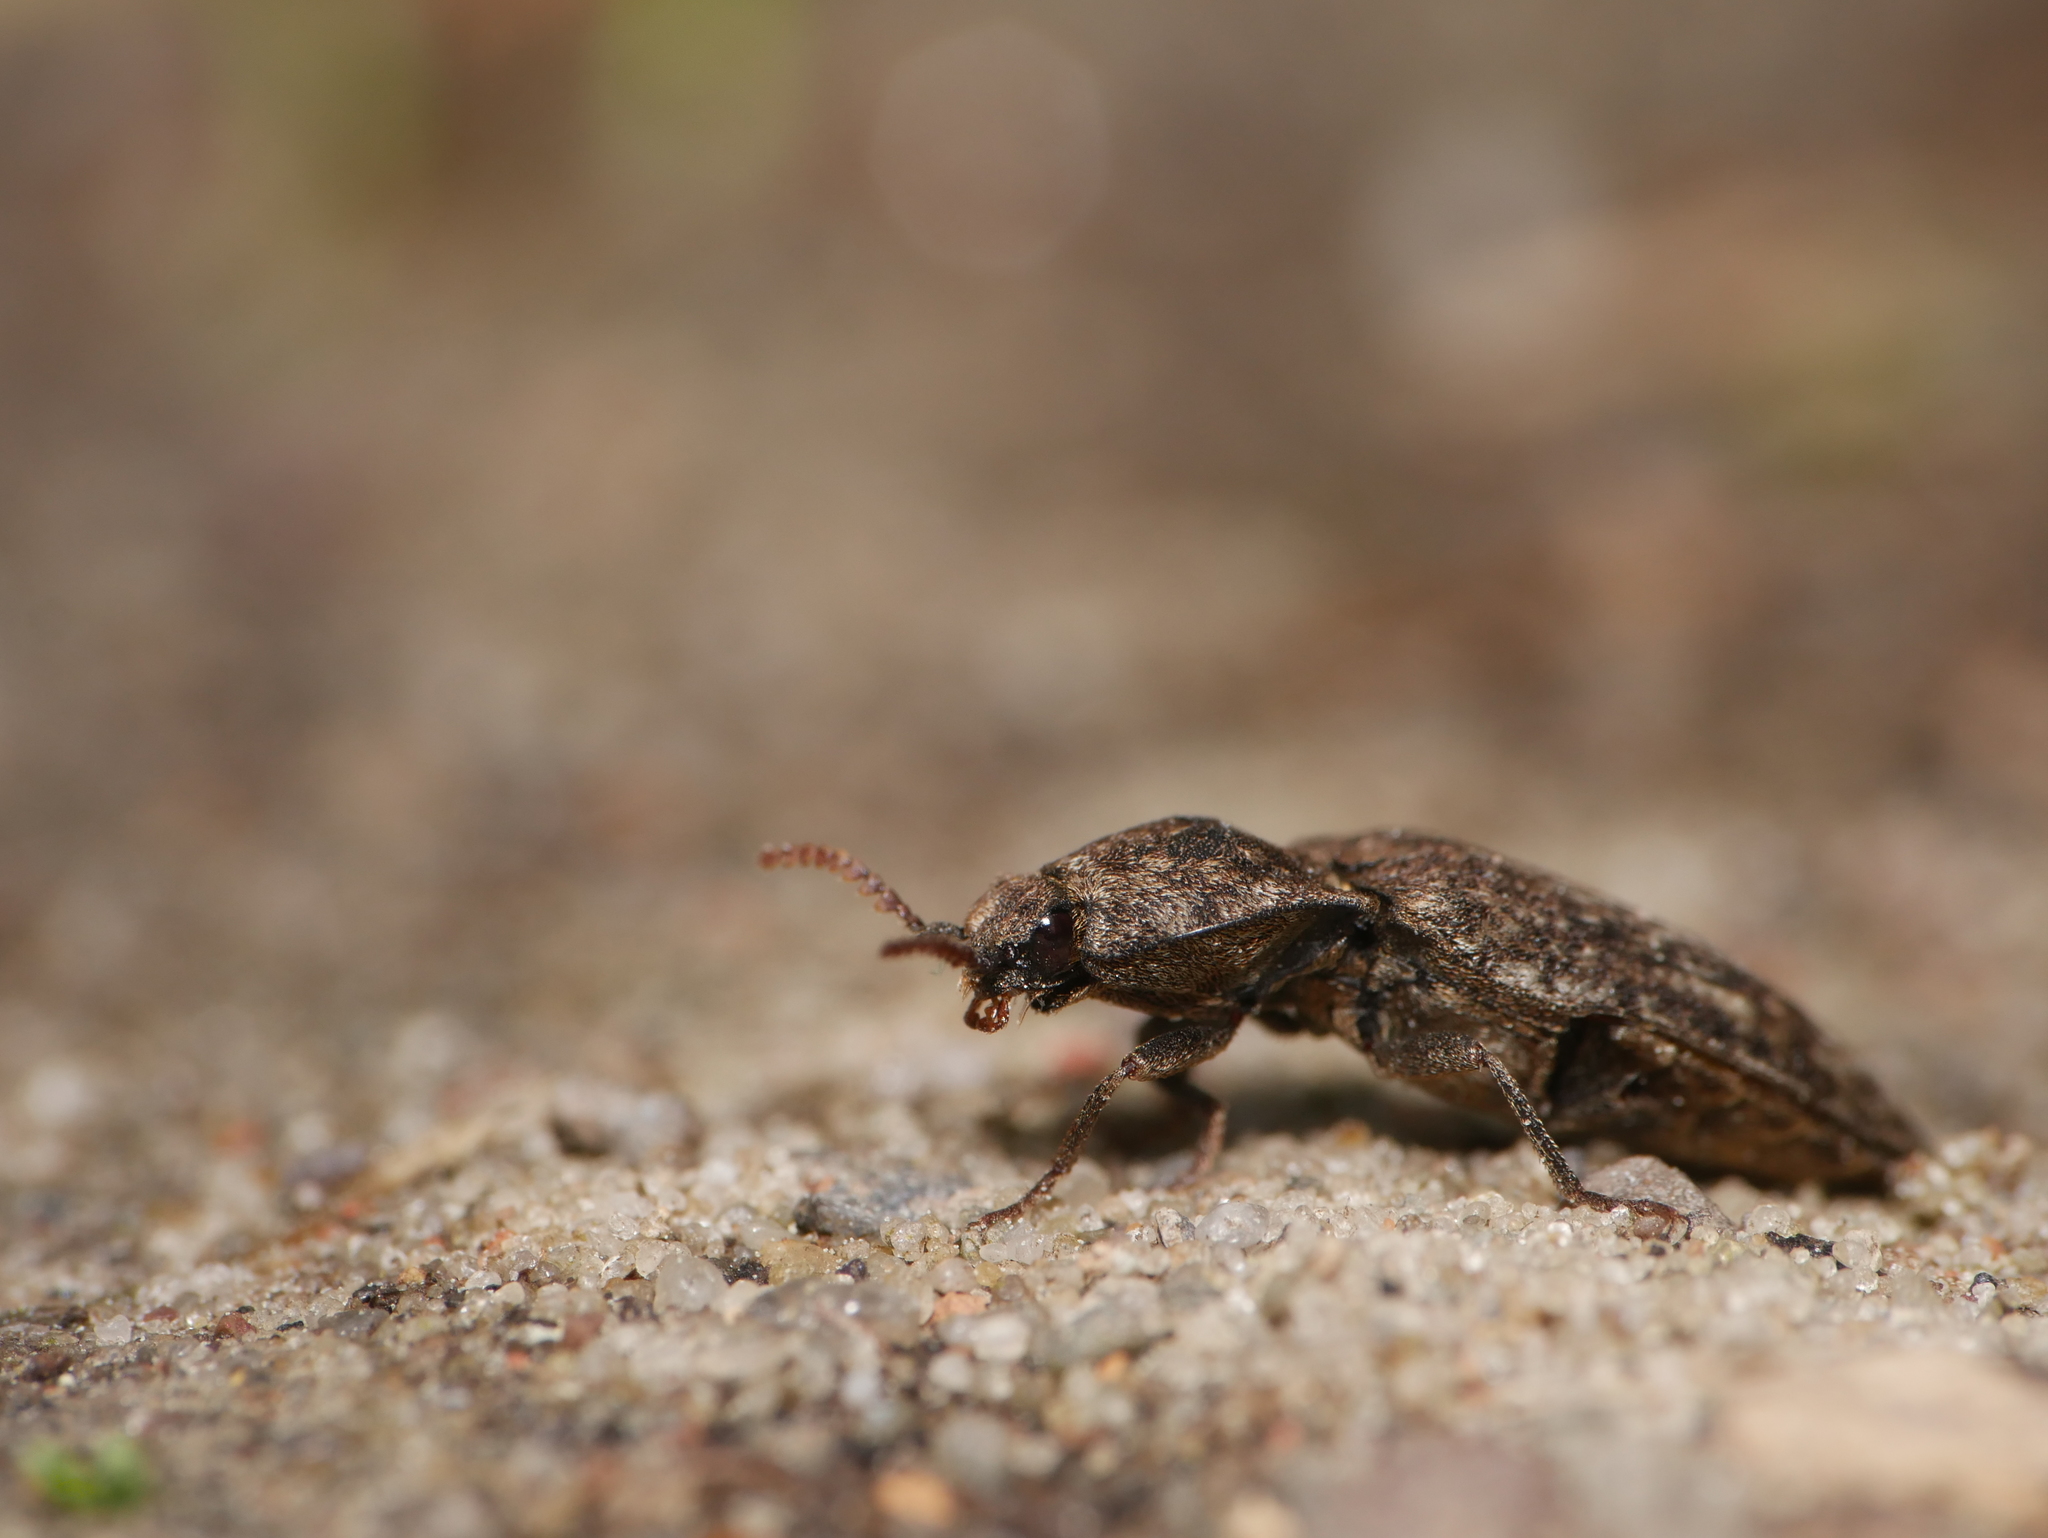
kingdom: Animalia
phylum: Arthropoda
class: Insecta
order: Coleoptera
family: Elateridae
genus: Agrypnus
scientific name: Agrypnus murinus
